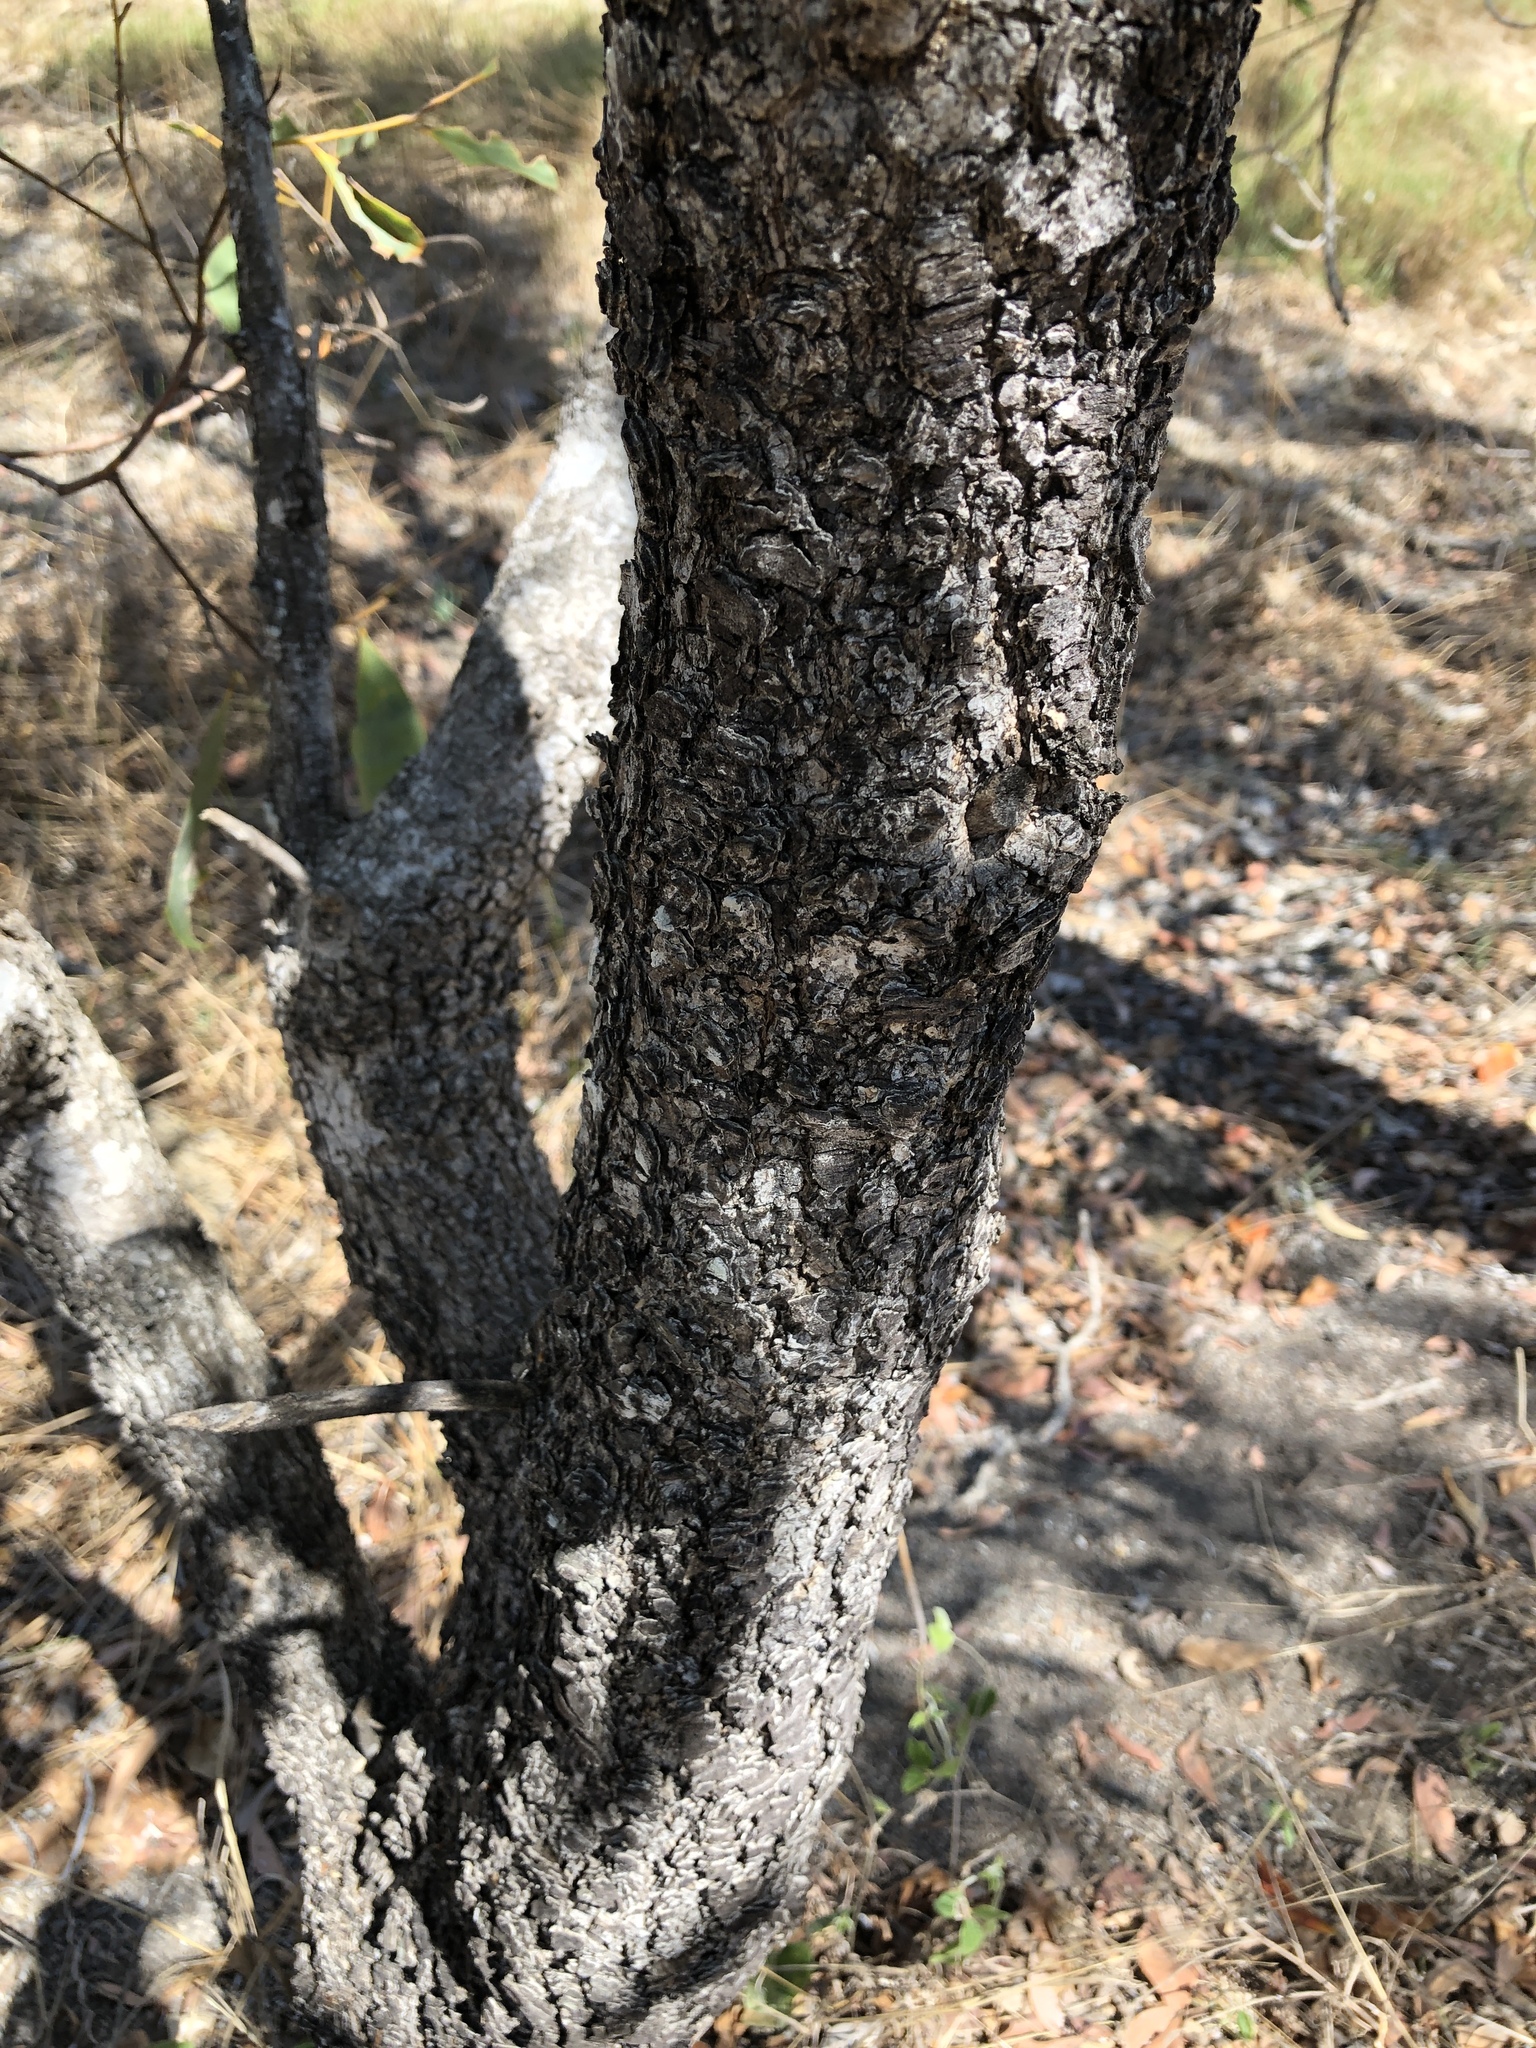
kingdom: Plantae
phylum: Tracheophyta
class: Magnoliopsida
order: Gentianales
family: Rubiaceae
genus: Timonius
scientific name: Timonius timon
